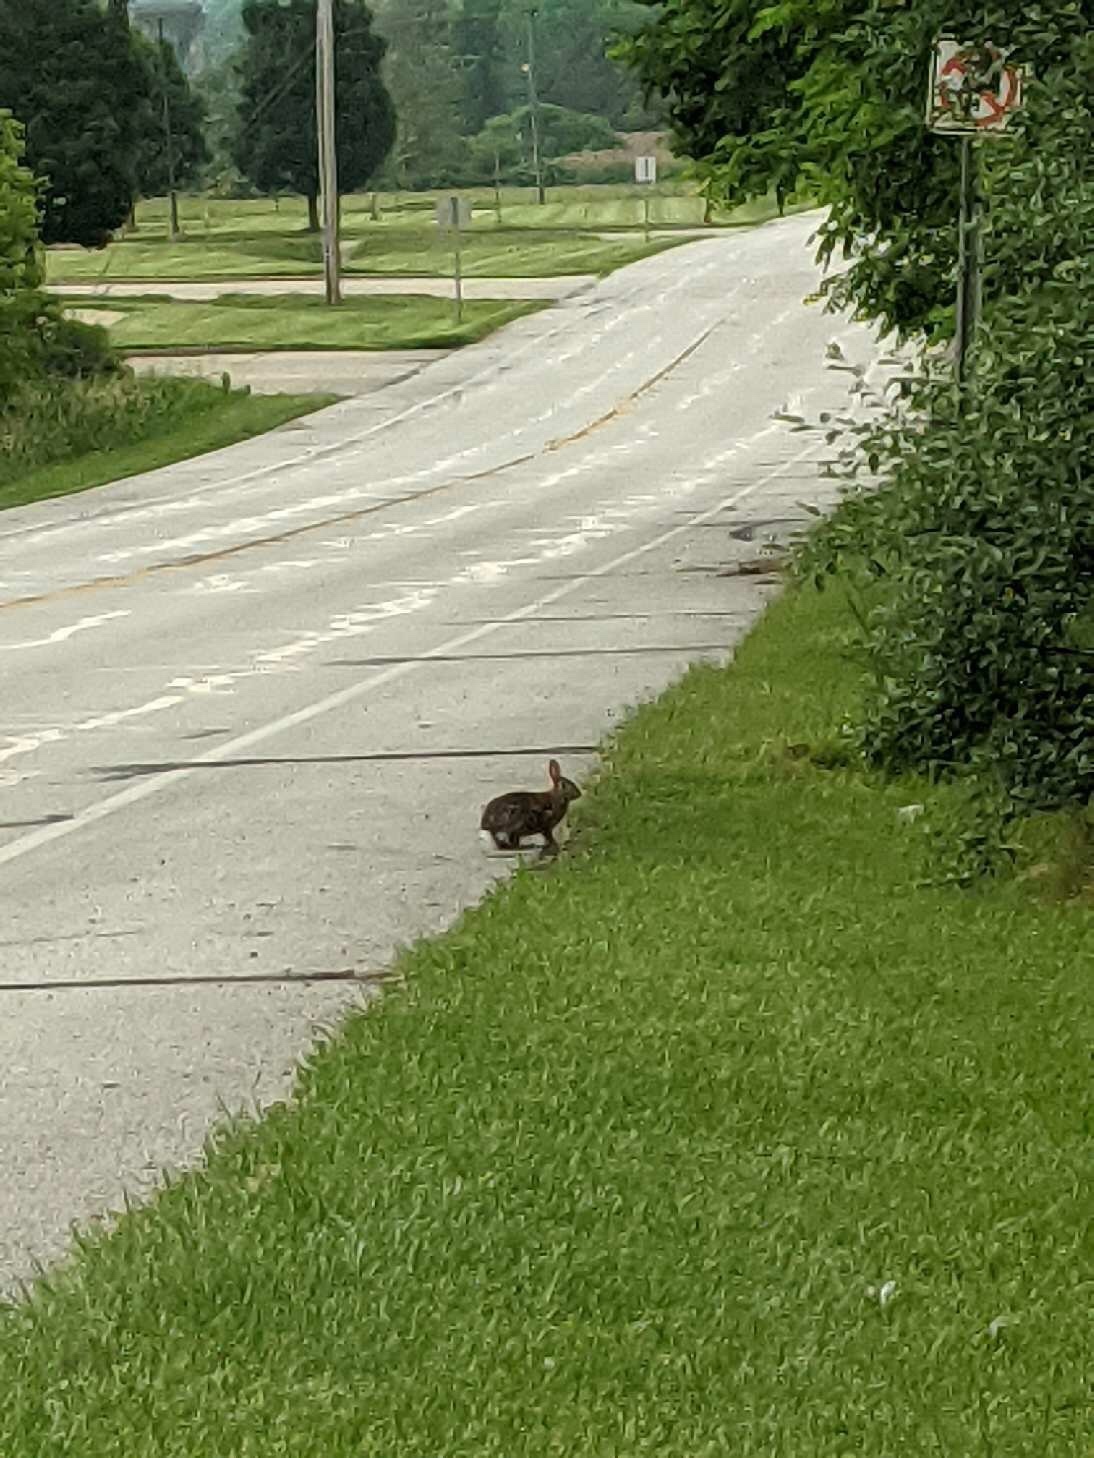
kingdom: Animalia
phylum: Chordata
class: Mammalia
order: Lagomorpha
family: Leporidae
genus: Sylvilagus
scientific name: Sylvilagus floridanus
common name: Eastern cottontail
